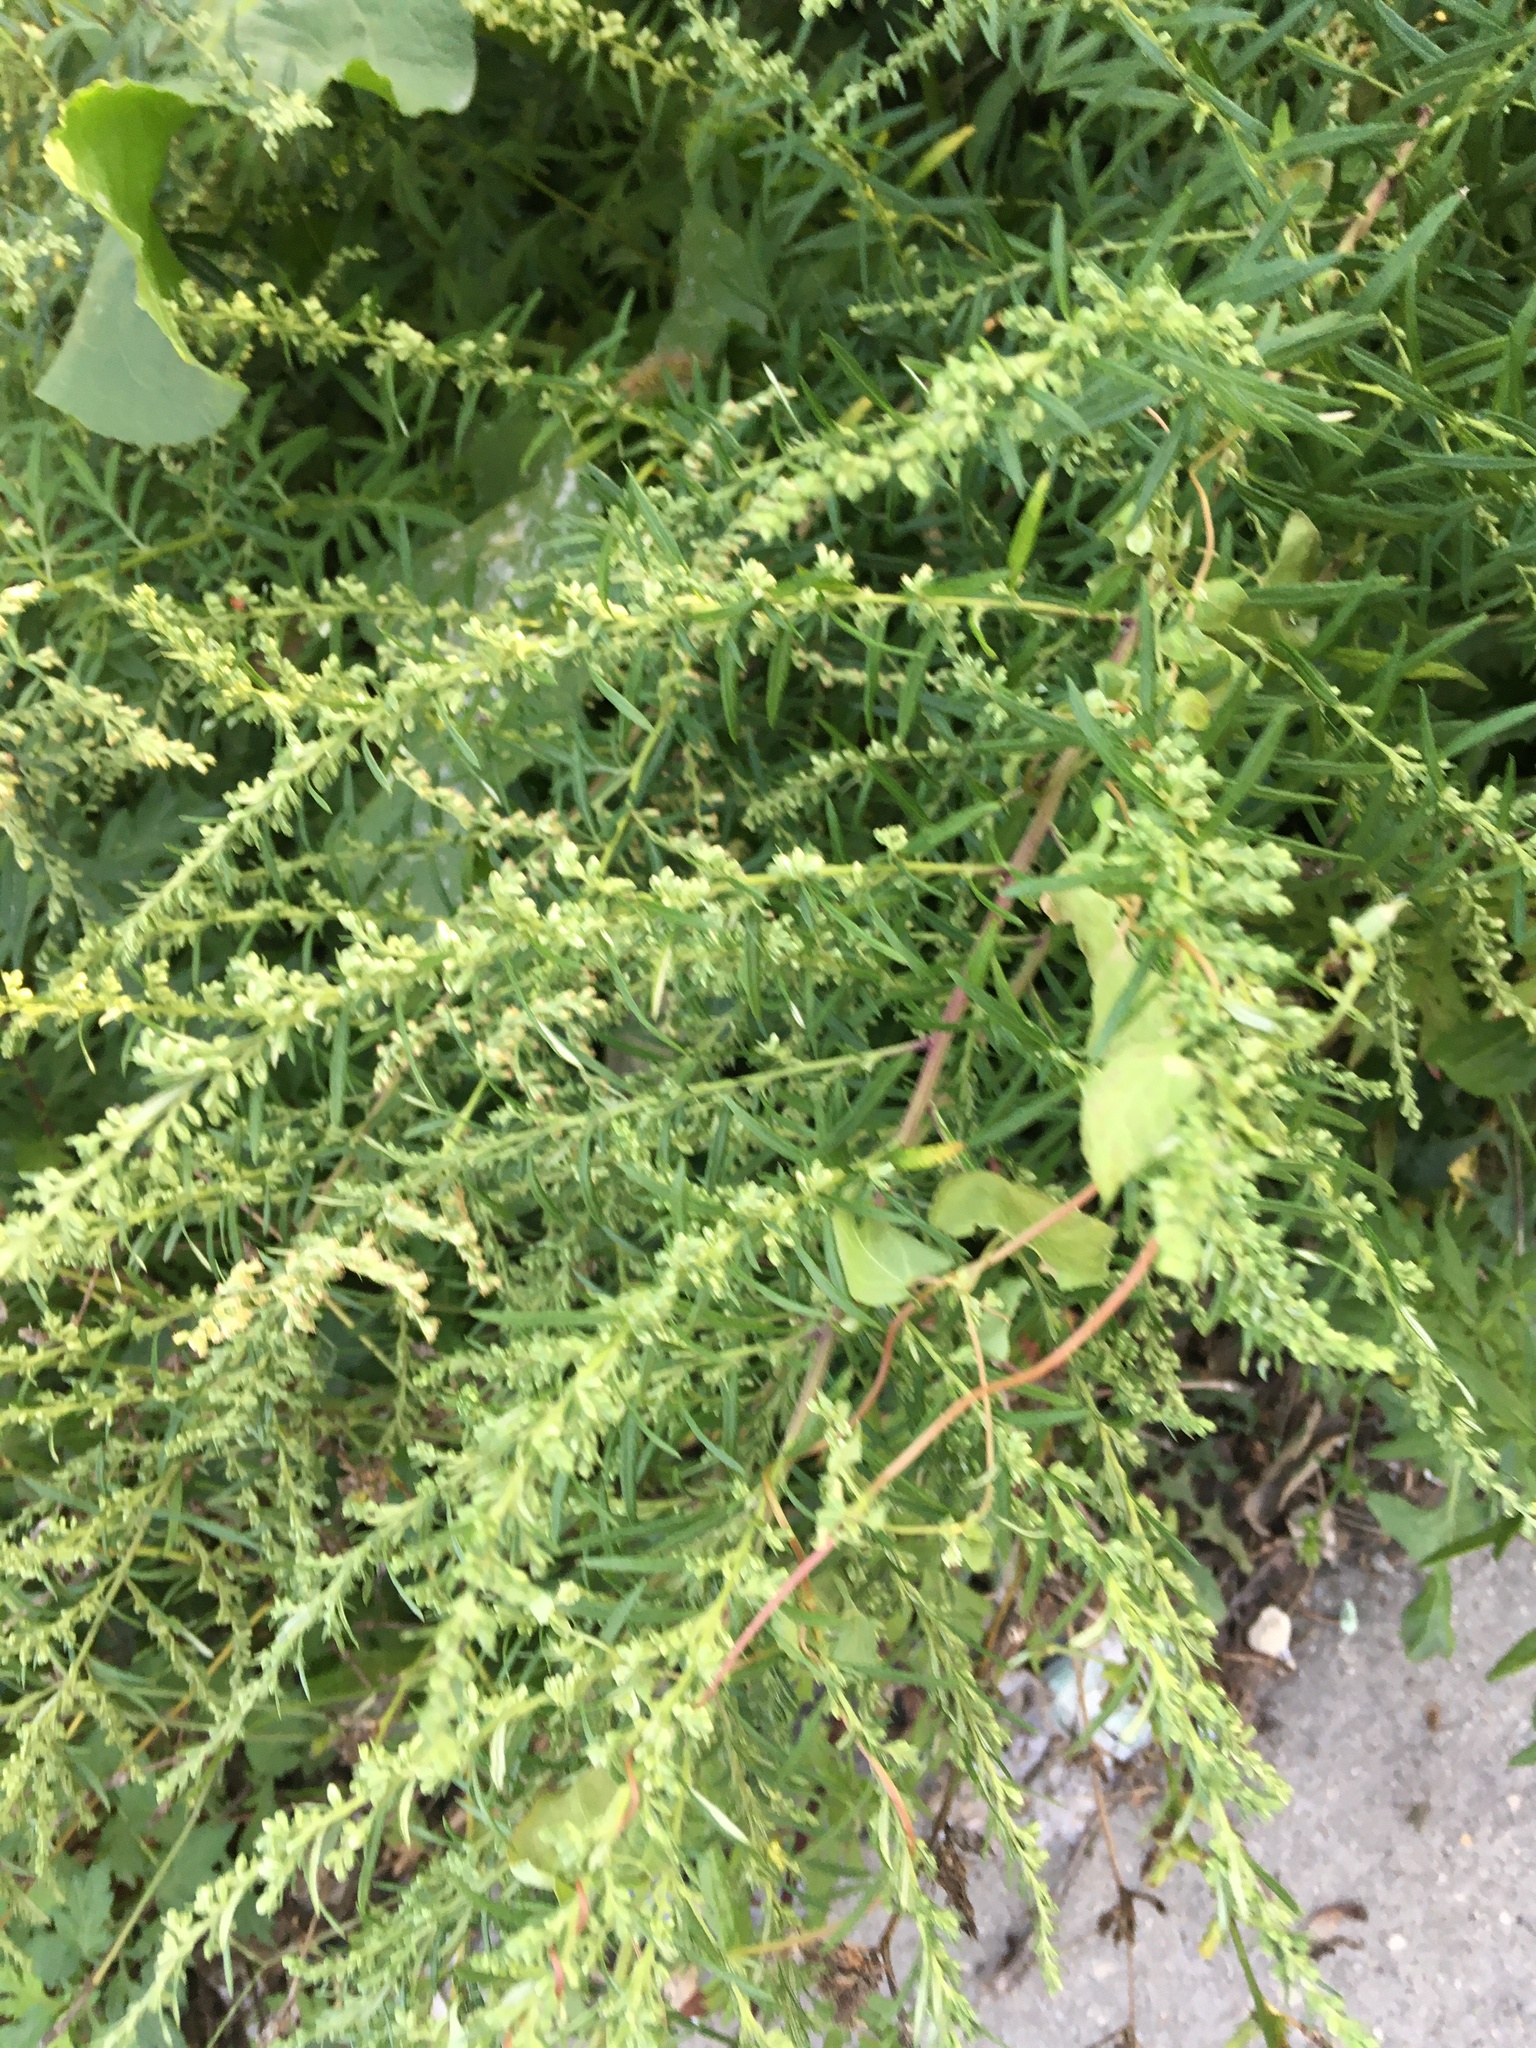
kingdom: Plantae
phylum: Tracheophyta
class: Magnoliopsida
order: Asterales
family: Asteraceae
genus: Artemisia
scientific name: Artemisia vulgaris
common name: Mugwort
